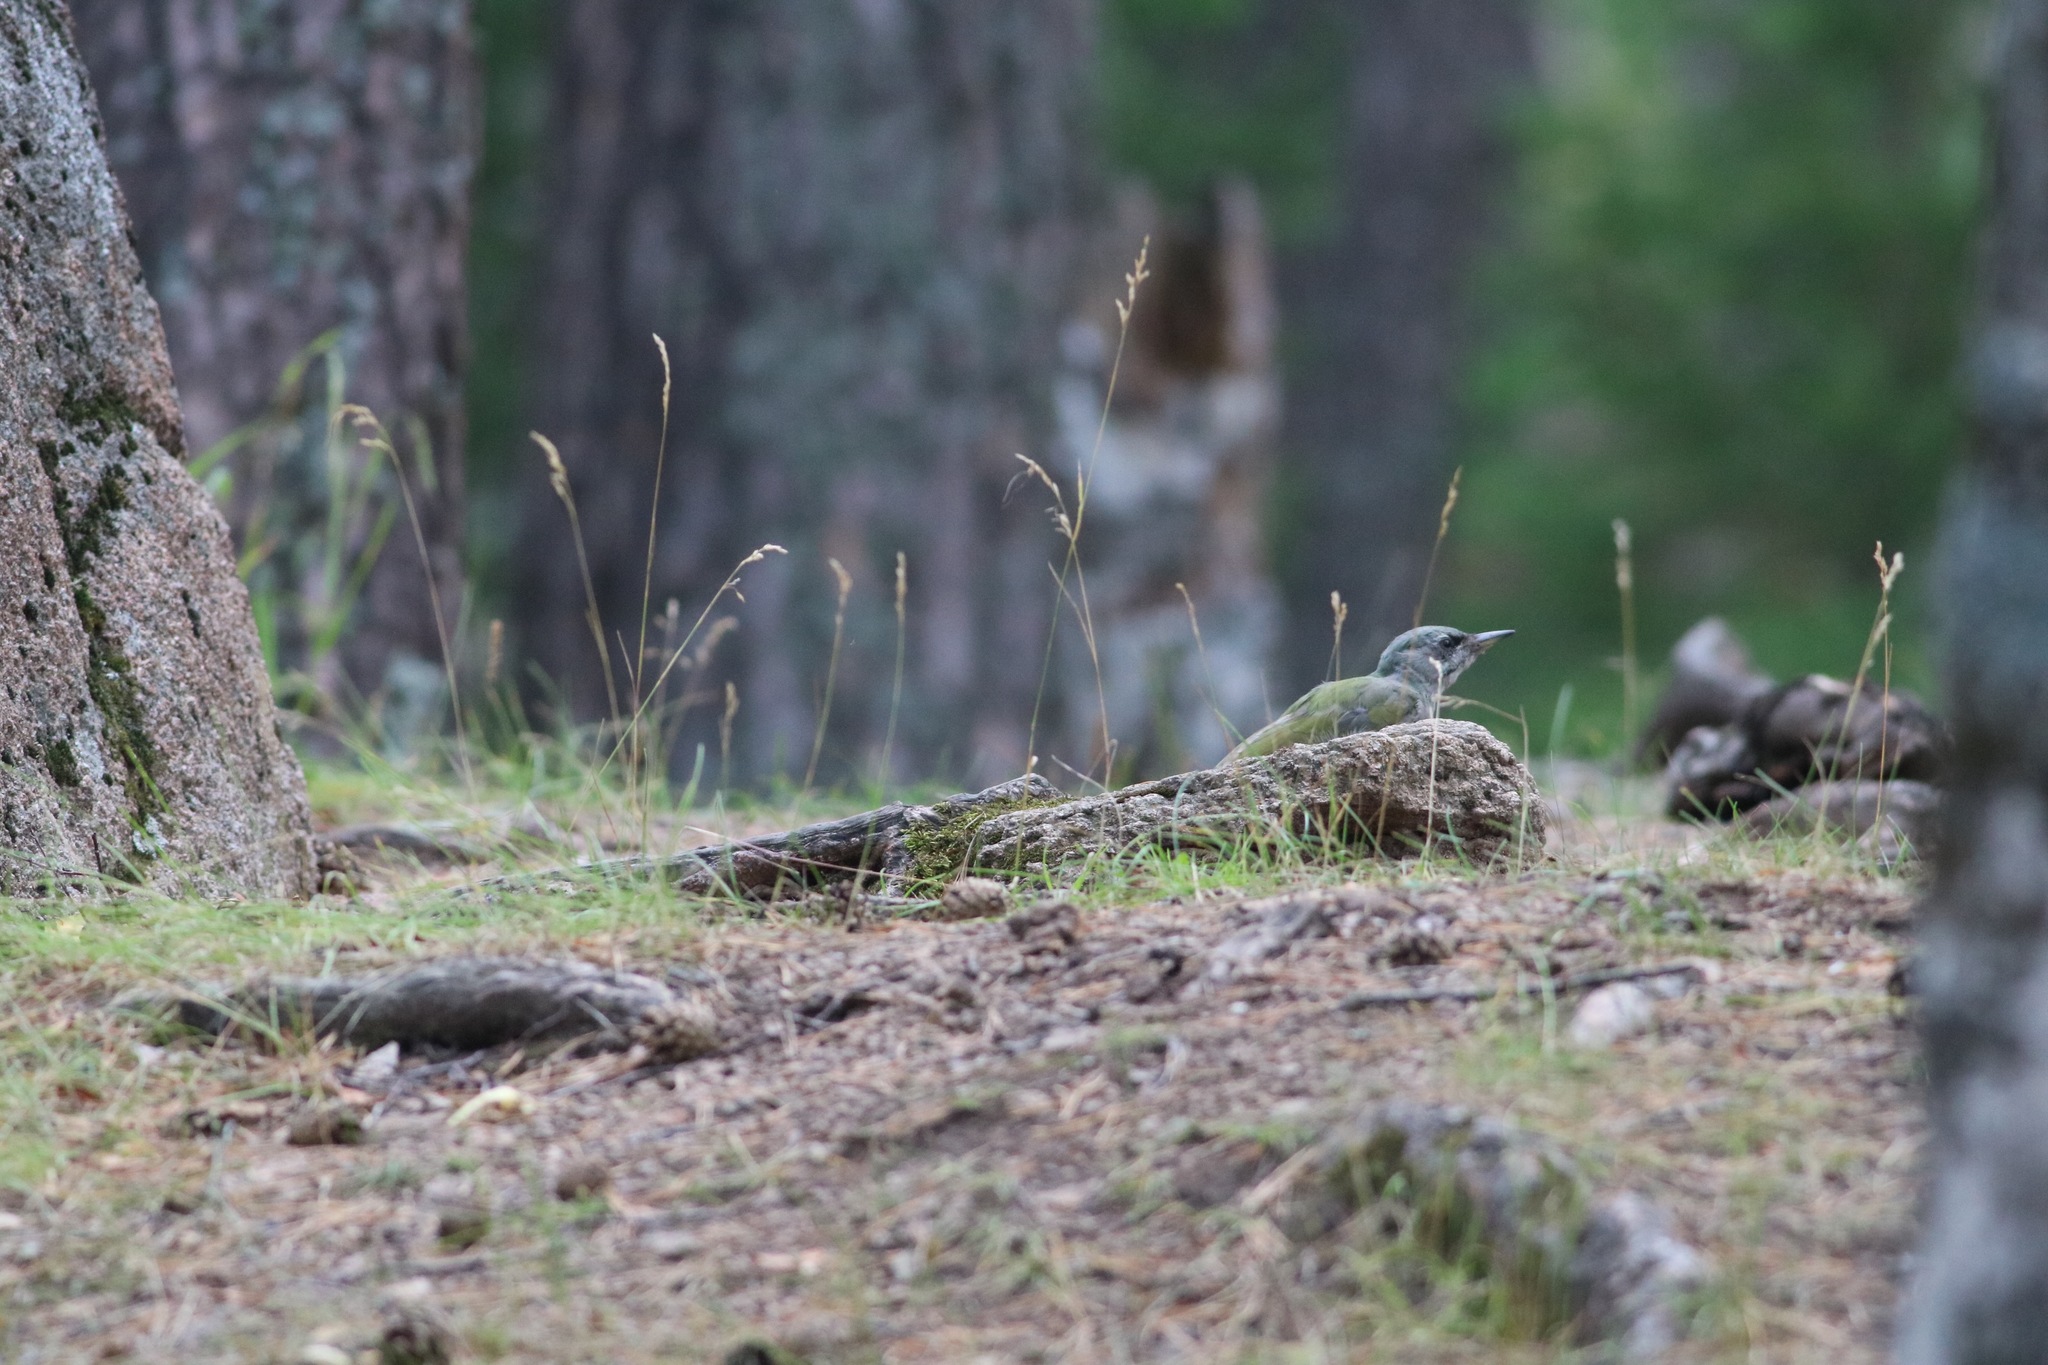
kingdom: Animalia
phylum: Chordata
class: Aves
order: Piciformes
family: Picidae
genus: Picus
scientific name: Picus canus
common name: Grey-headed woodpecker
